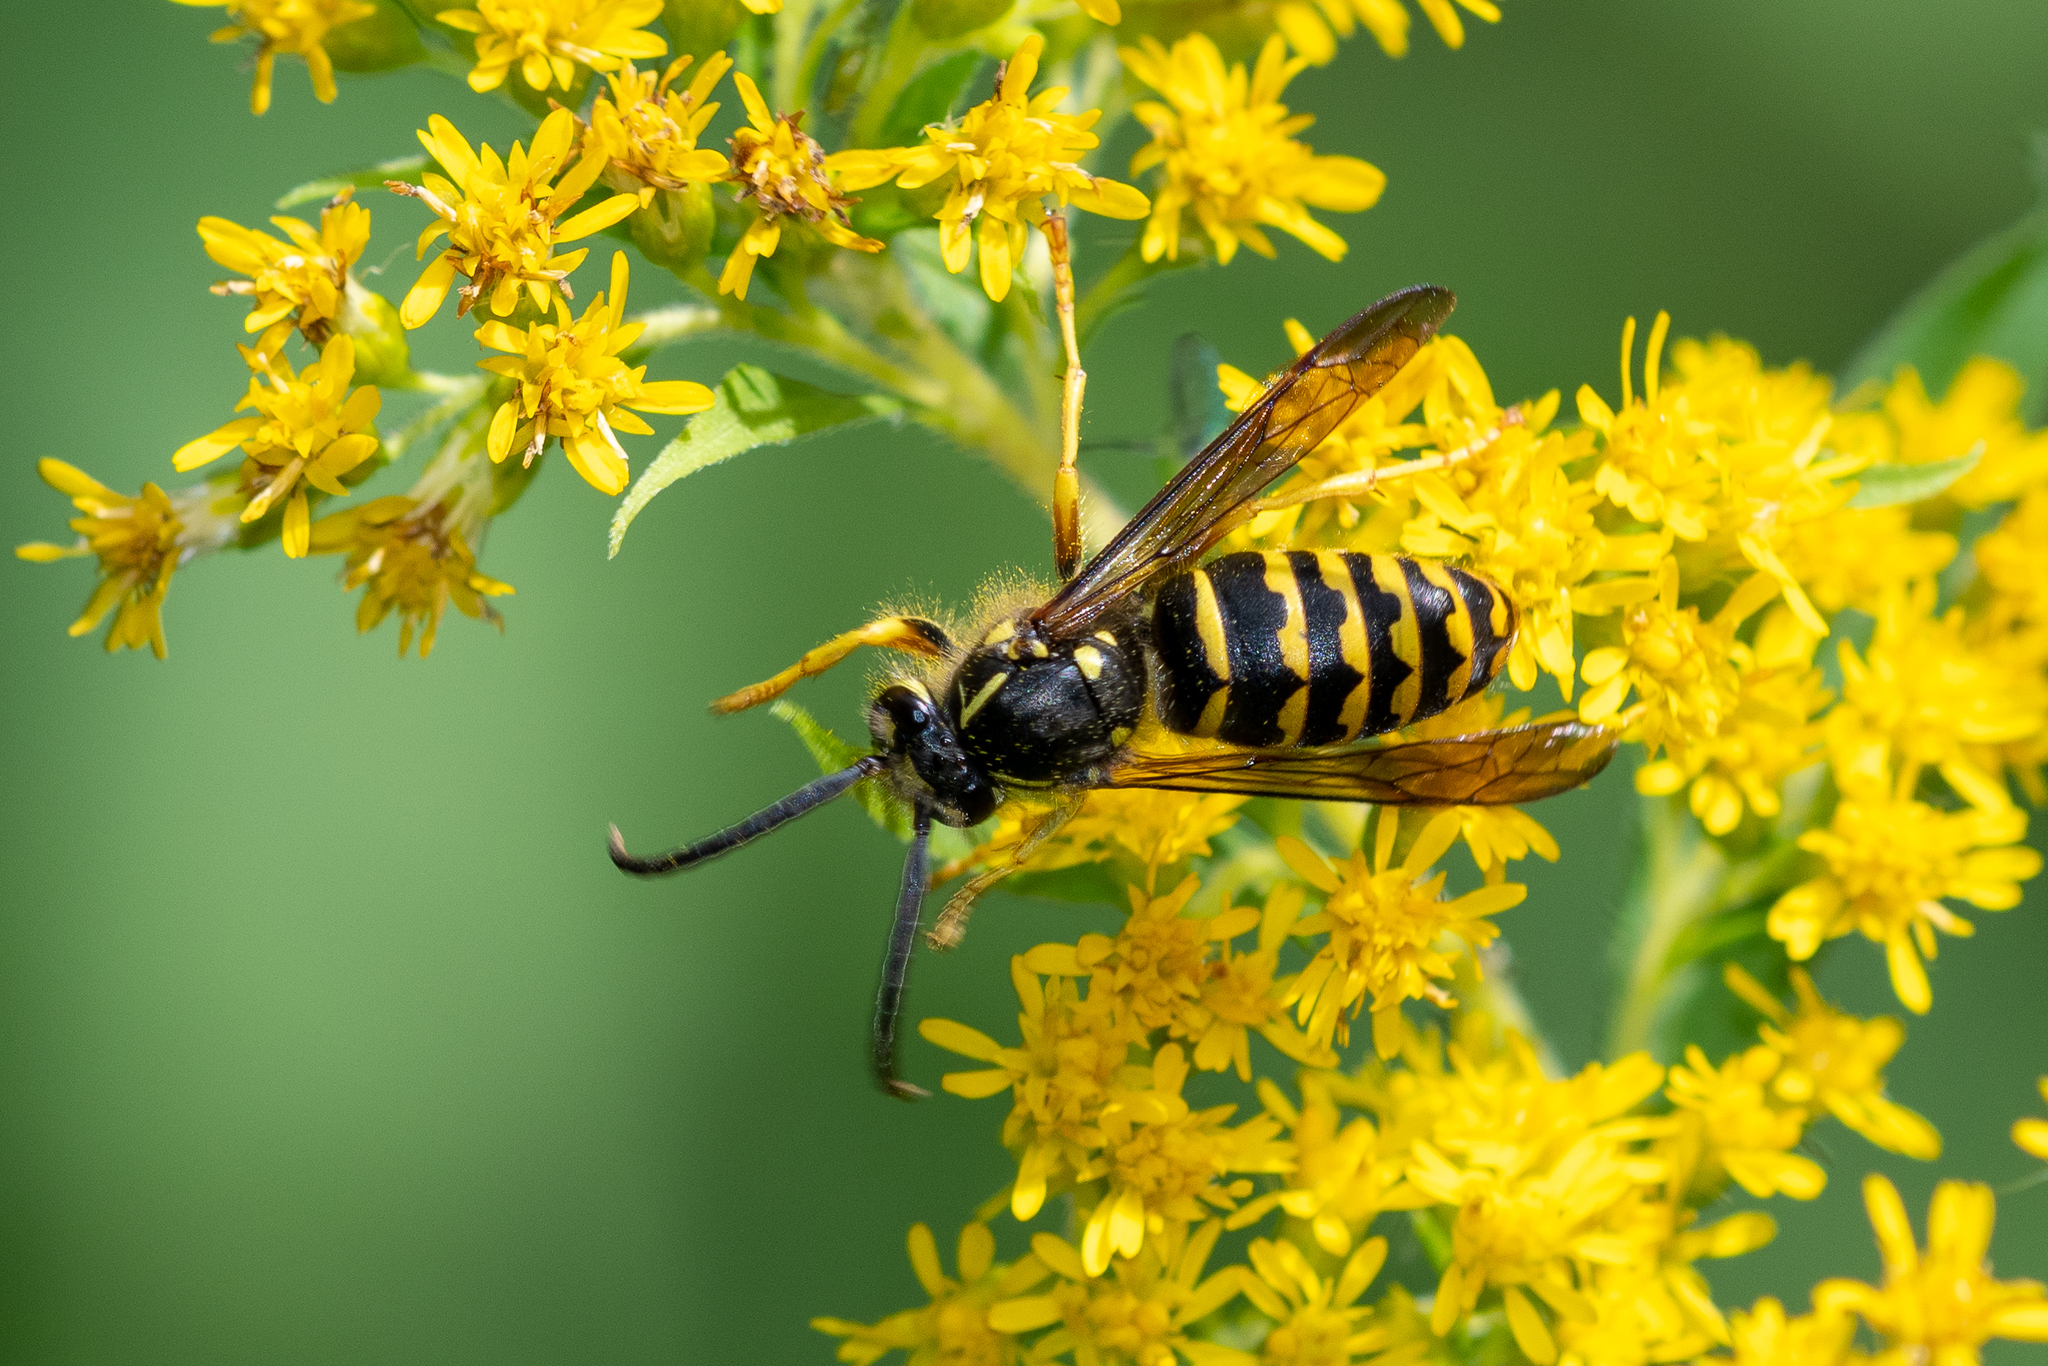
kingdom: Animalia
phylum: Arthropoda
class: Insecta
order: Hymenoptera
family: Vespidae
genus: Dolichovespula
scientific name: Dolichovespula arenaria
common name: Aerial yellowjacket
